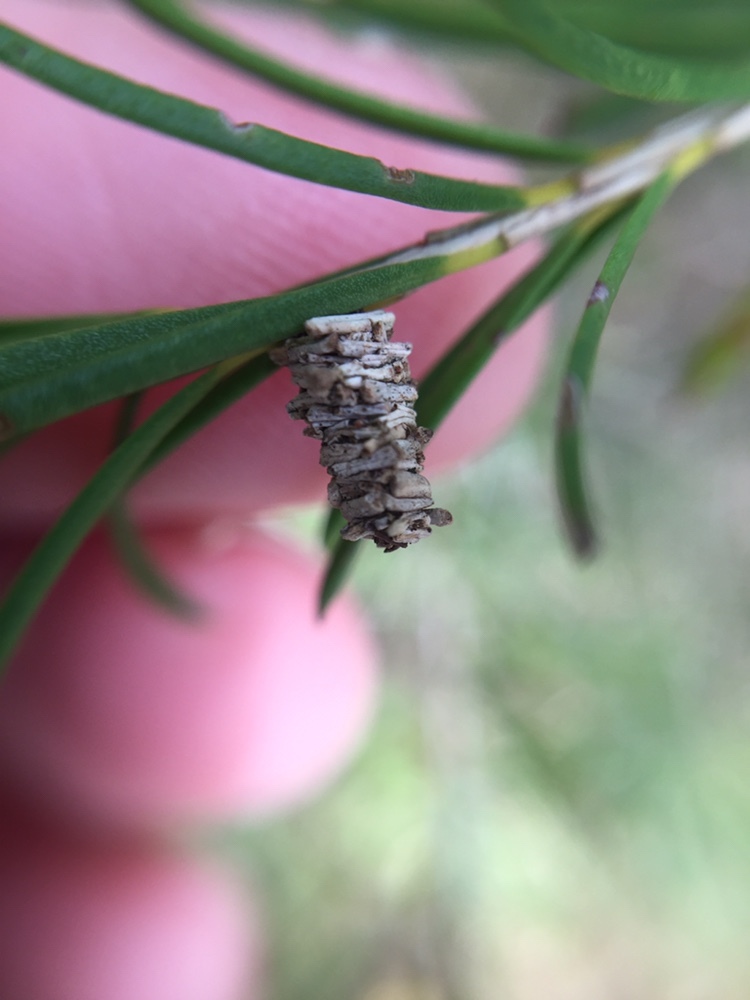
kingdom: Animalia
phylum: Arthropoda
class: Insecta
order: Lepidoptera
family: Psychidae
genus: Lepidoscia
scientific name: Lepidoscia lainodes
